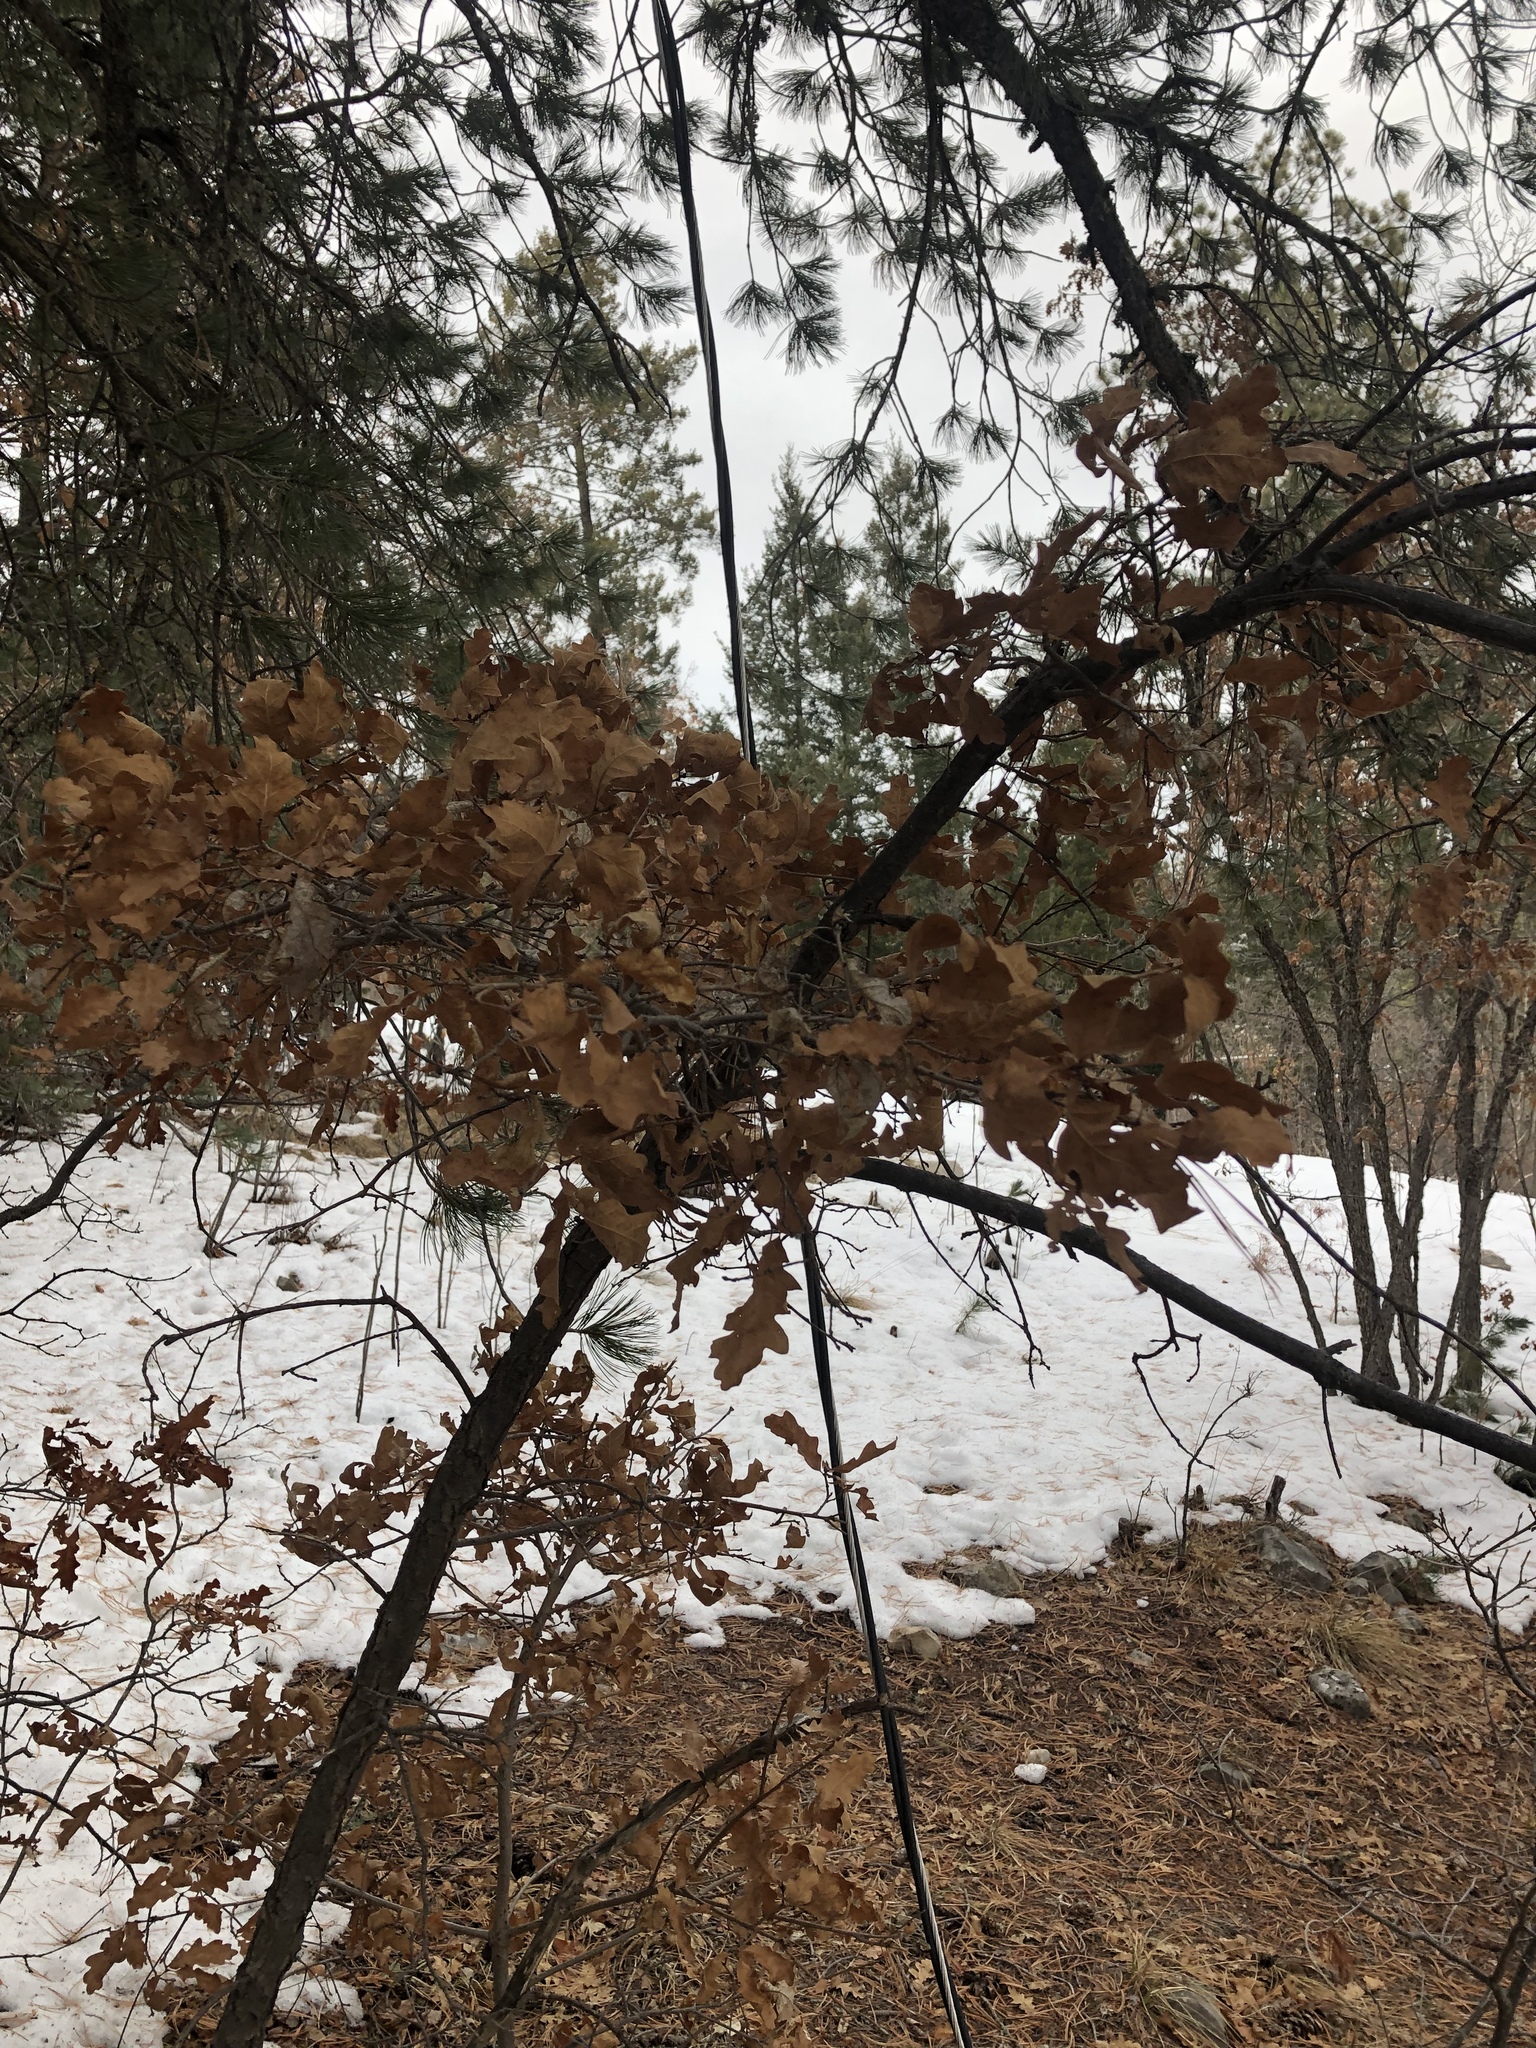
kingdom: Plantae
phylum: Tracheophyta
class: Magnoliopsida
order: Fagales
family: Fagaceae
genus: Quercus
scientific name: Quercus gambelii
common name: Gambel oak
